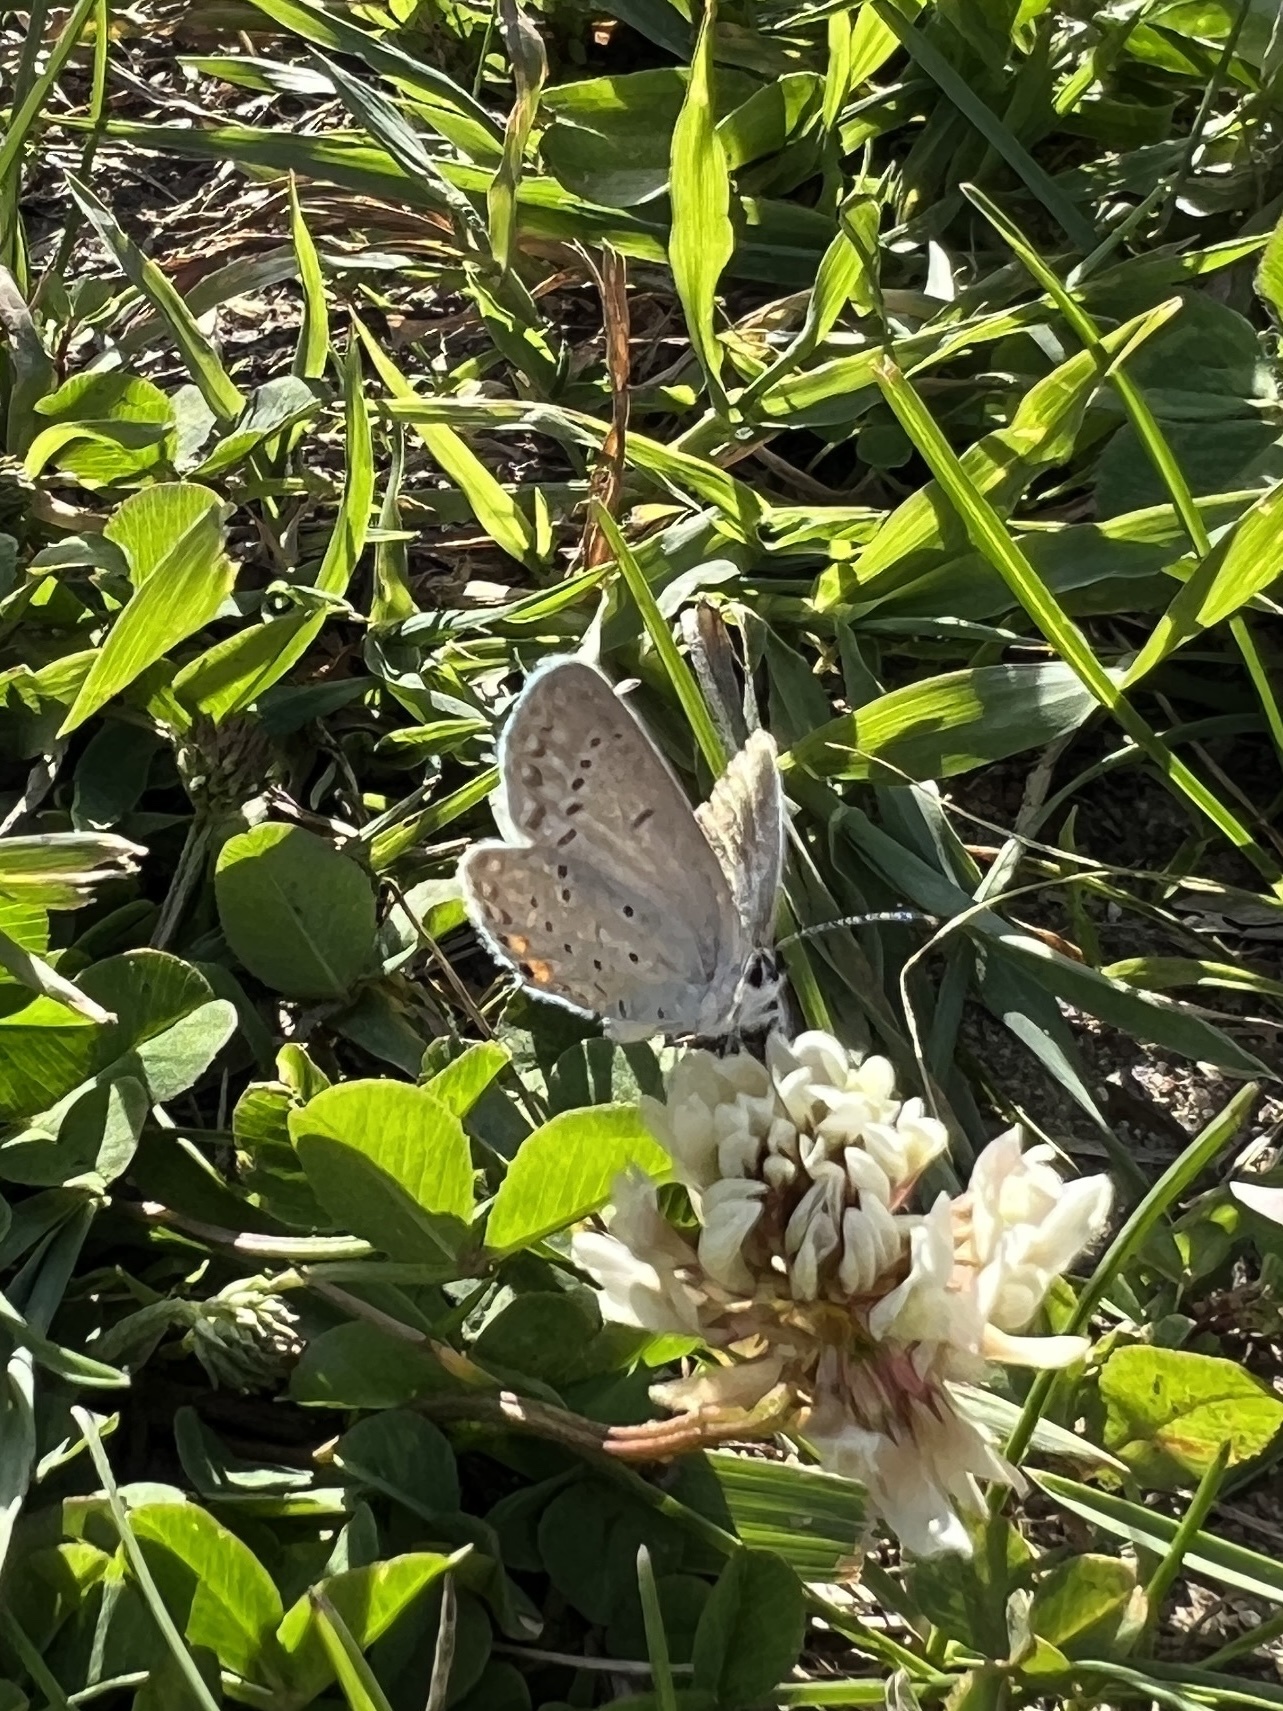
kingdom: Animalia
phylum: Arthropoda
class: Insecta
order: Lepidoptera
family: Lycaenidae
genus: Elkalyce
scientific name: Elkalyce comyntas
